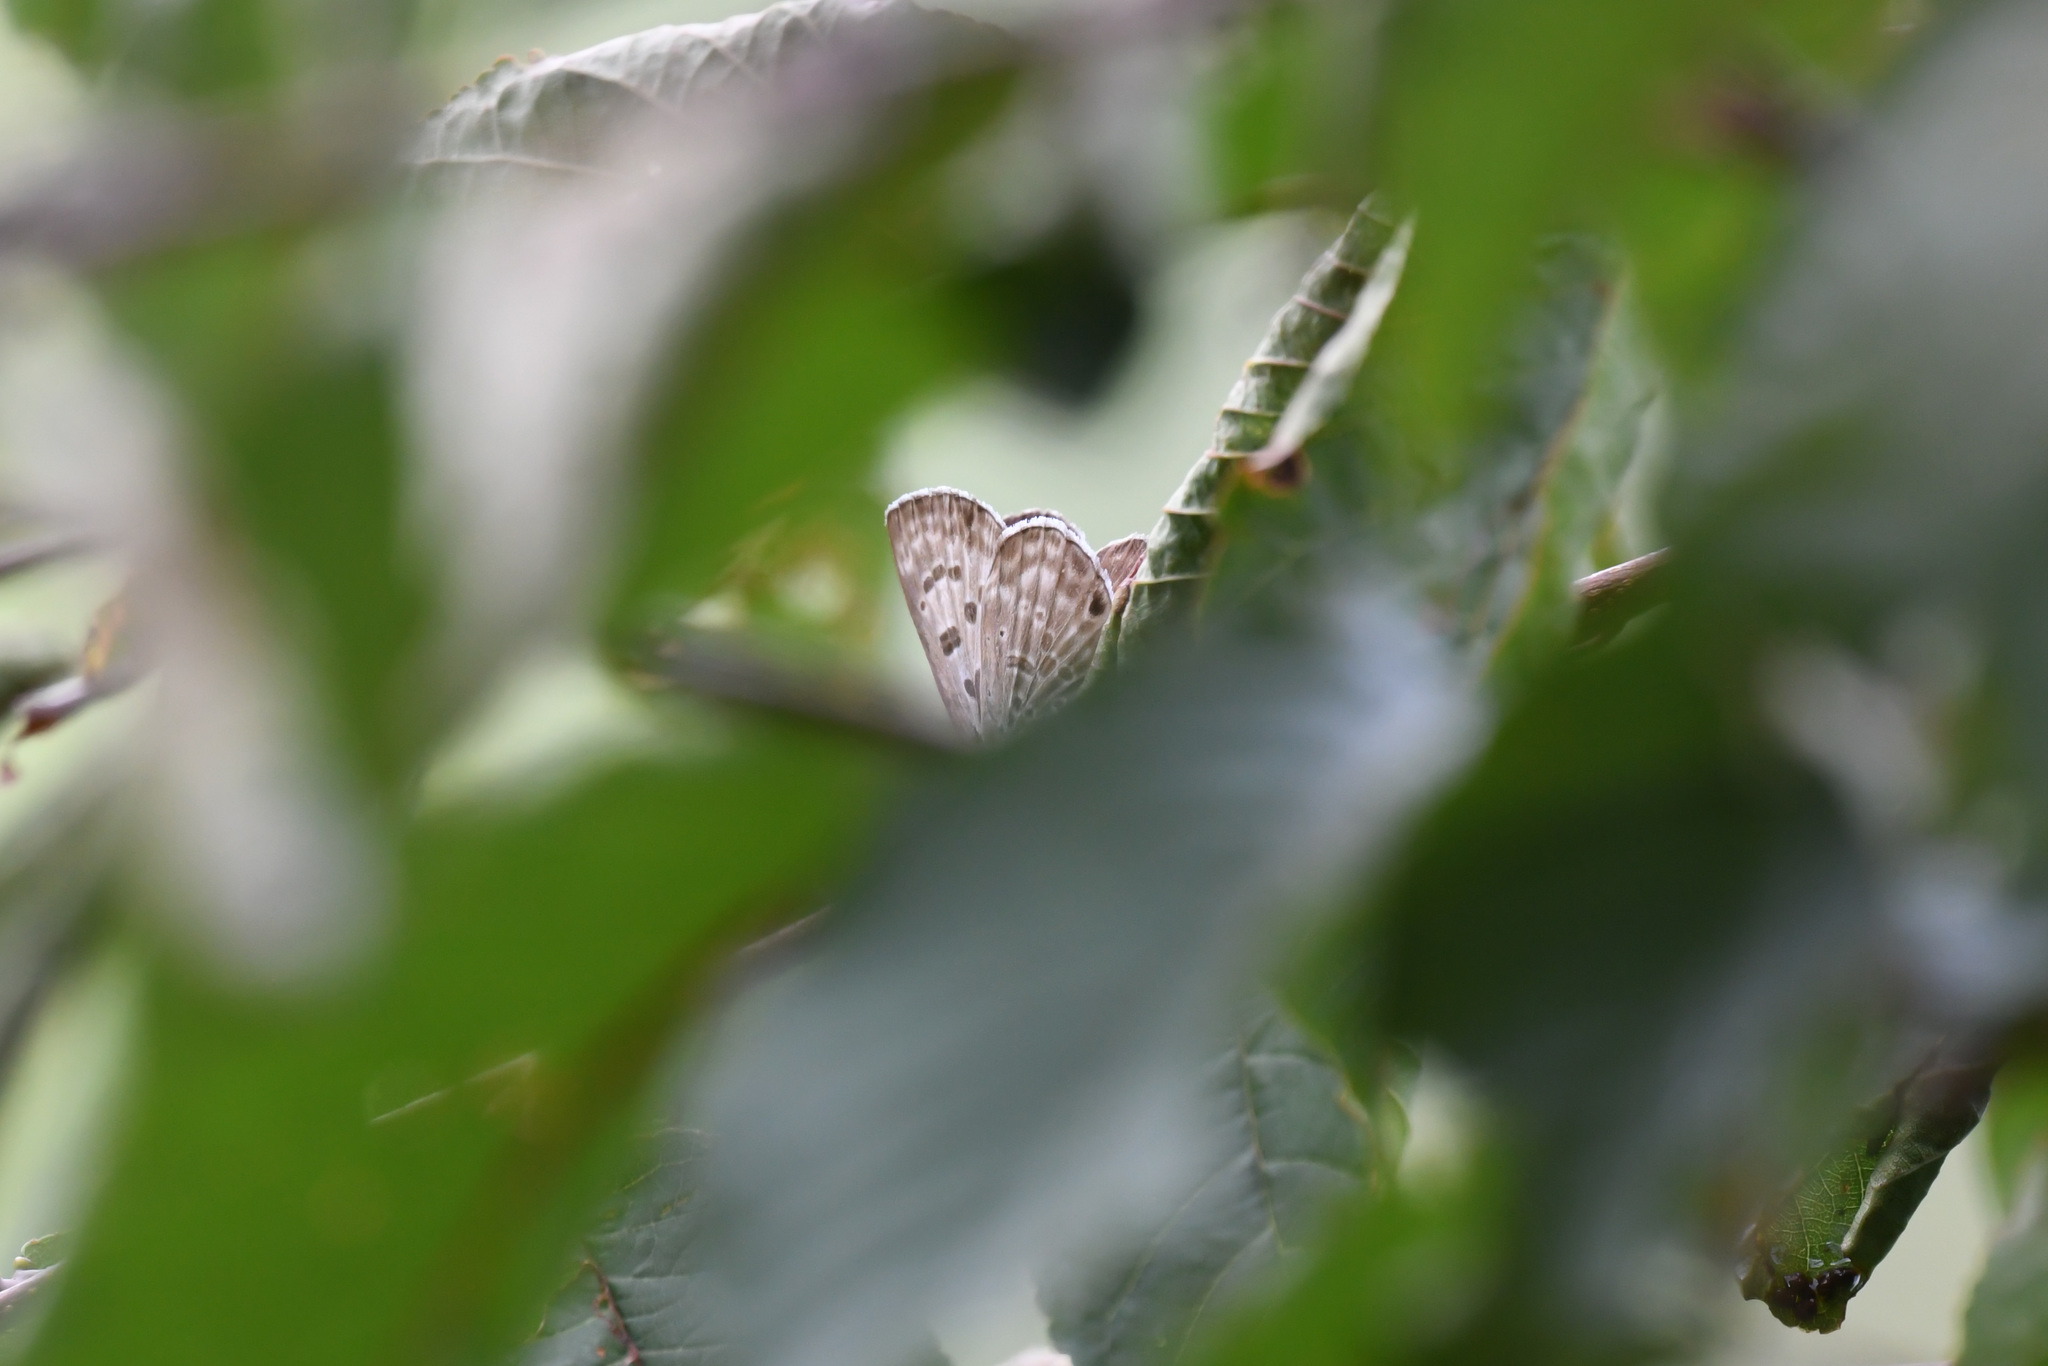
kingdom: Animalia
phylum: Arthropoda
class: Insecta
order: Lepidoptera
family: Lycaenidae
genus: Niphanda
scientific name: Niphanda fusca
